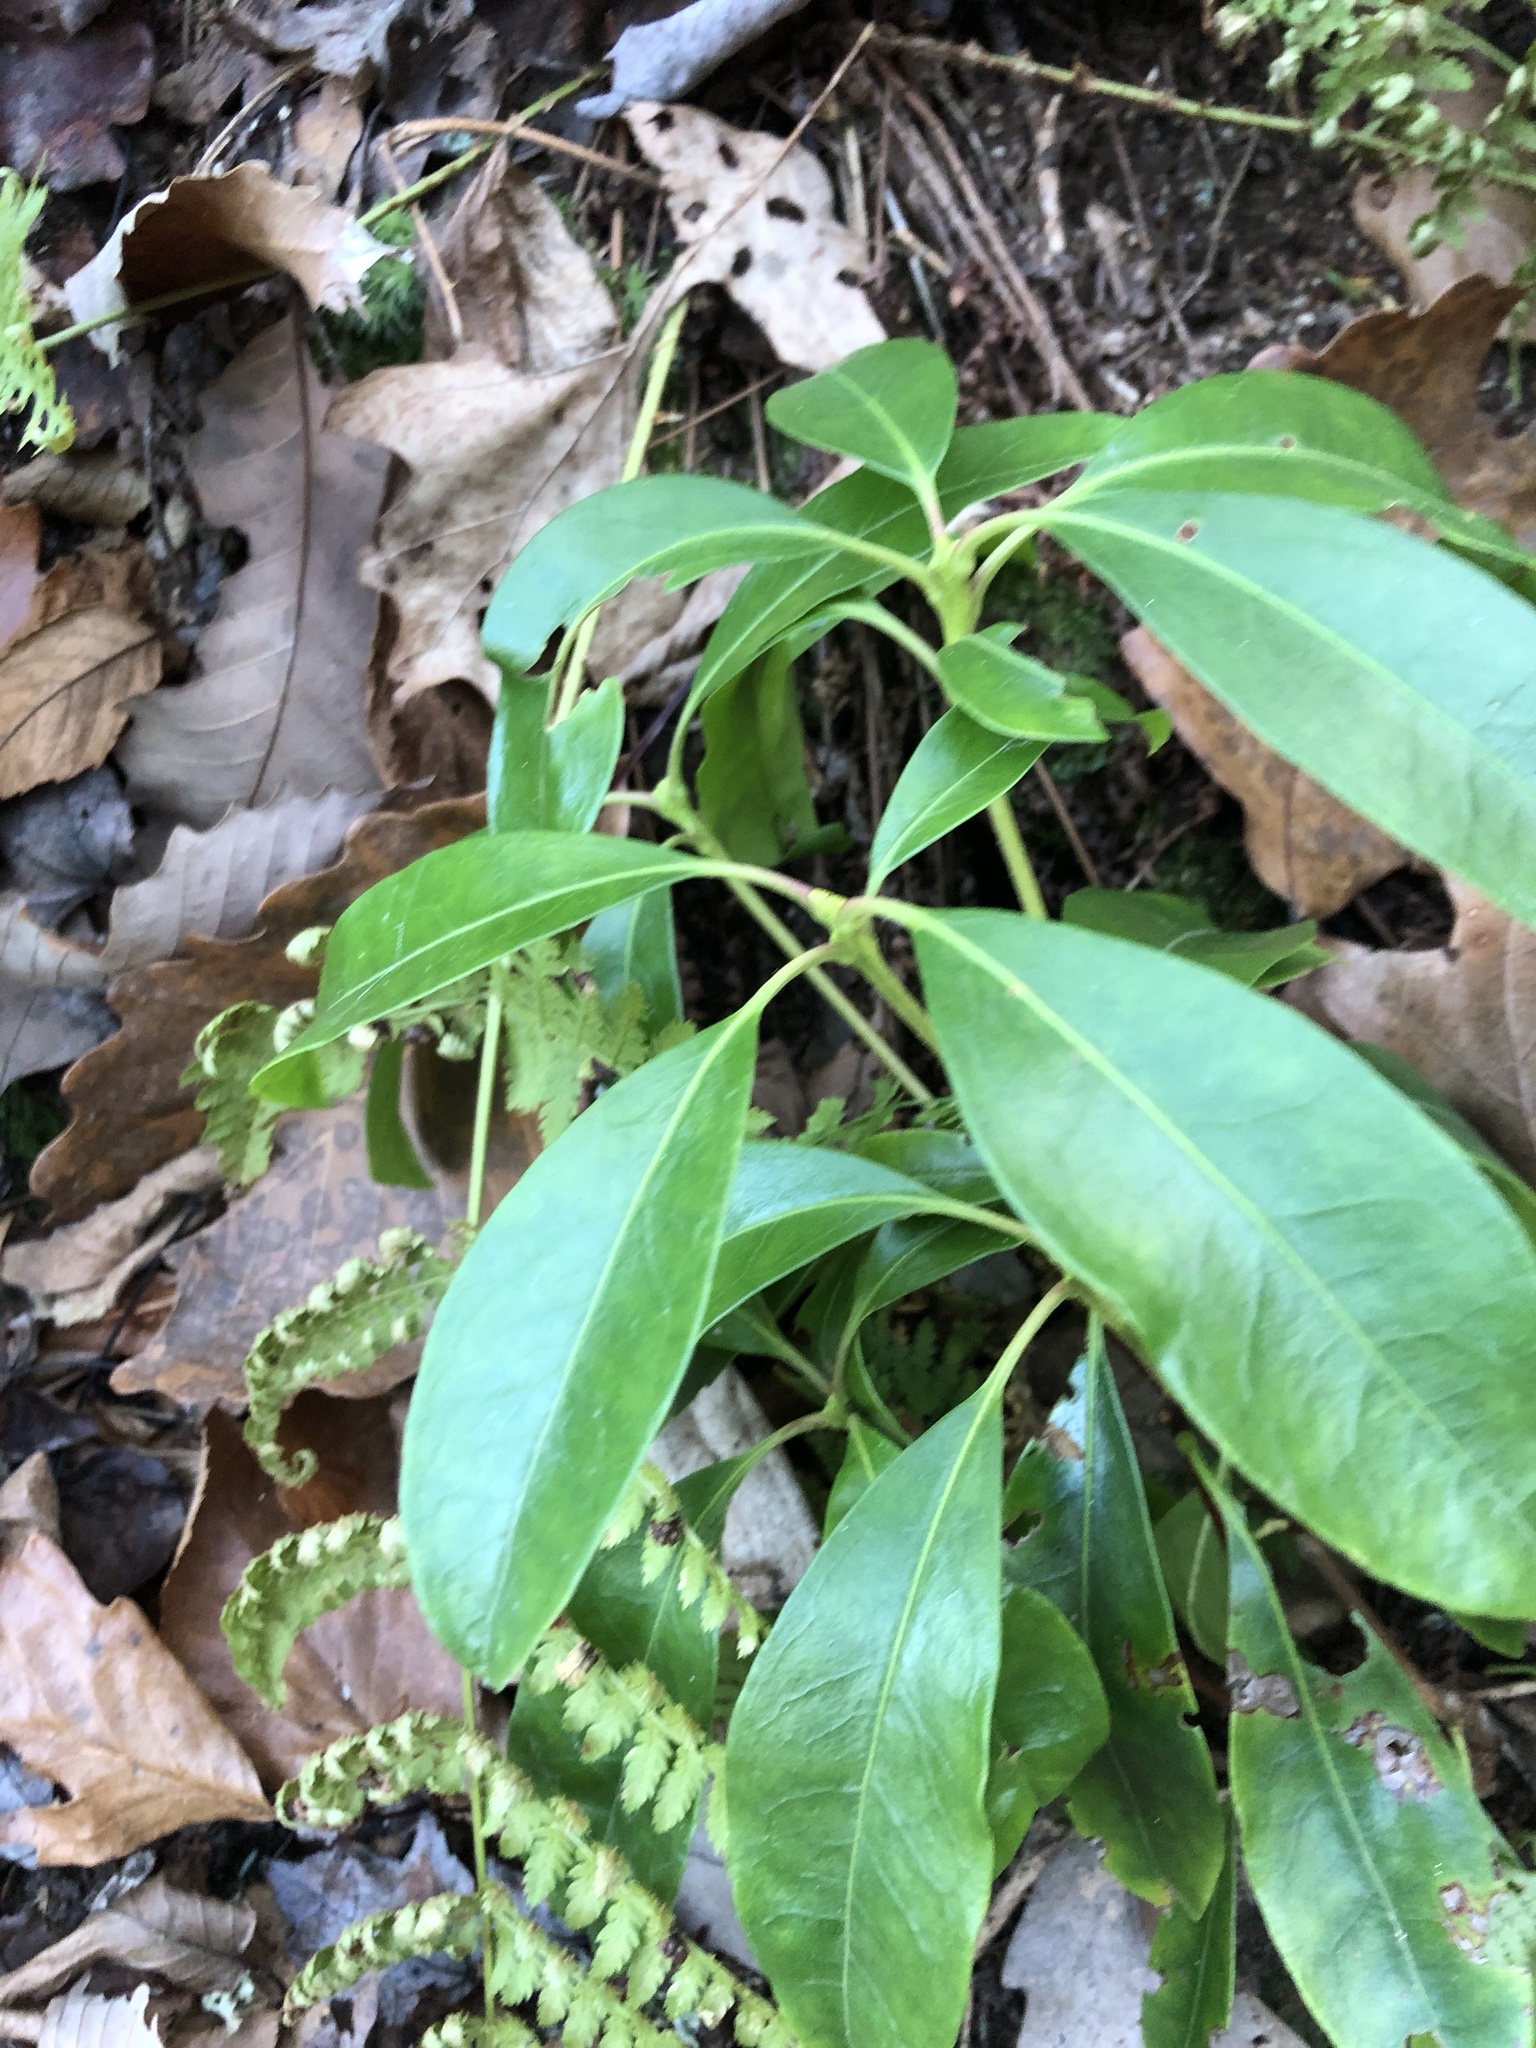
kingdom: Plantae
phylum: Tracheophyta
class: Magnoliopsida
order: Ericales
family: Ericaceae
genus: Kalmia
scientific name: Kalmia latifolia
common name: Mountain-laurel
